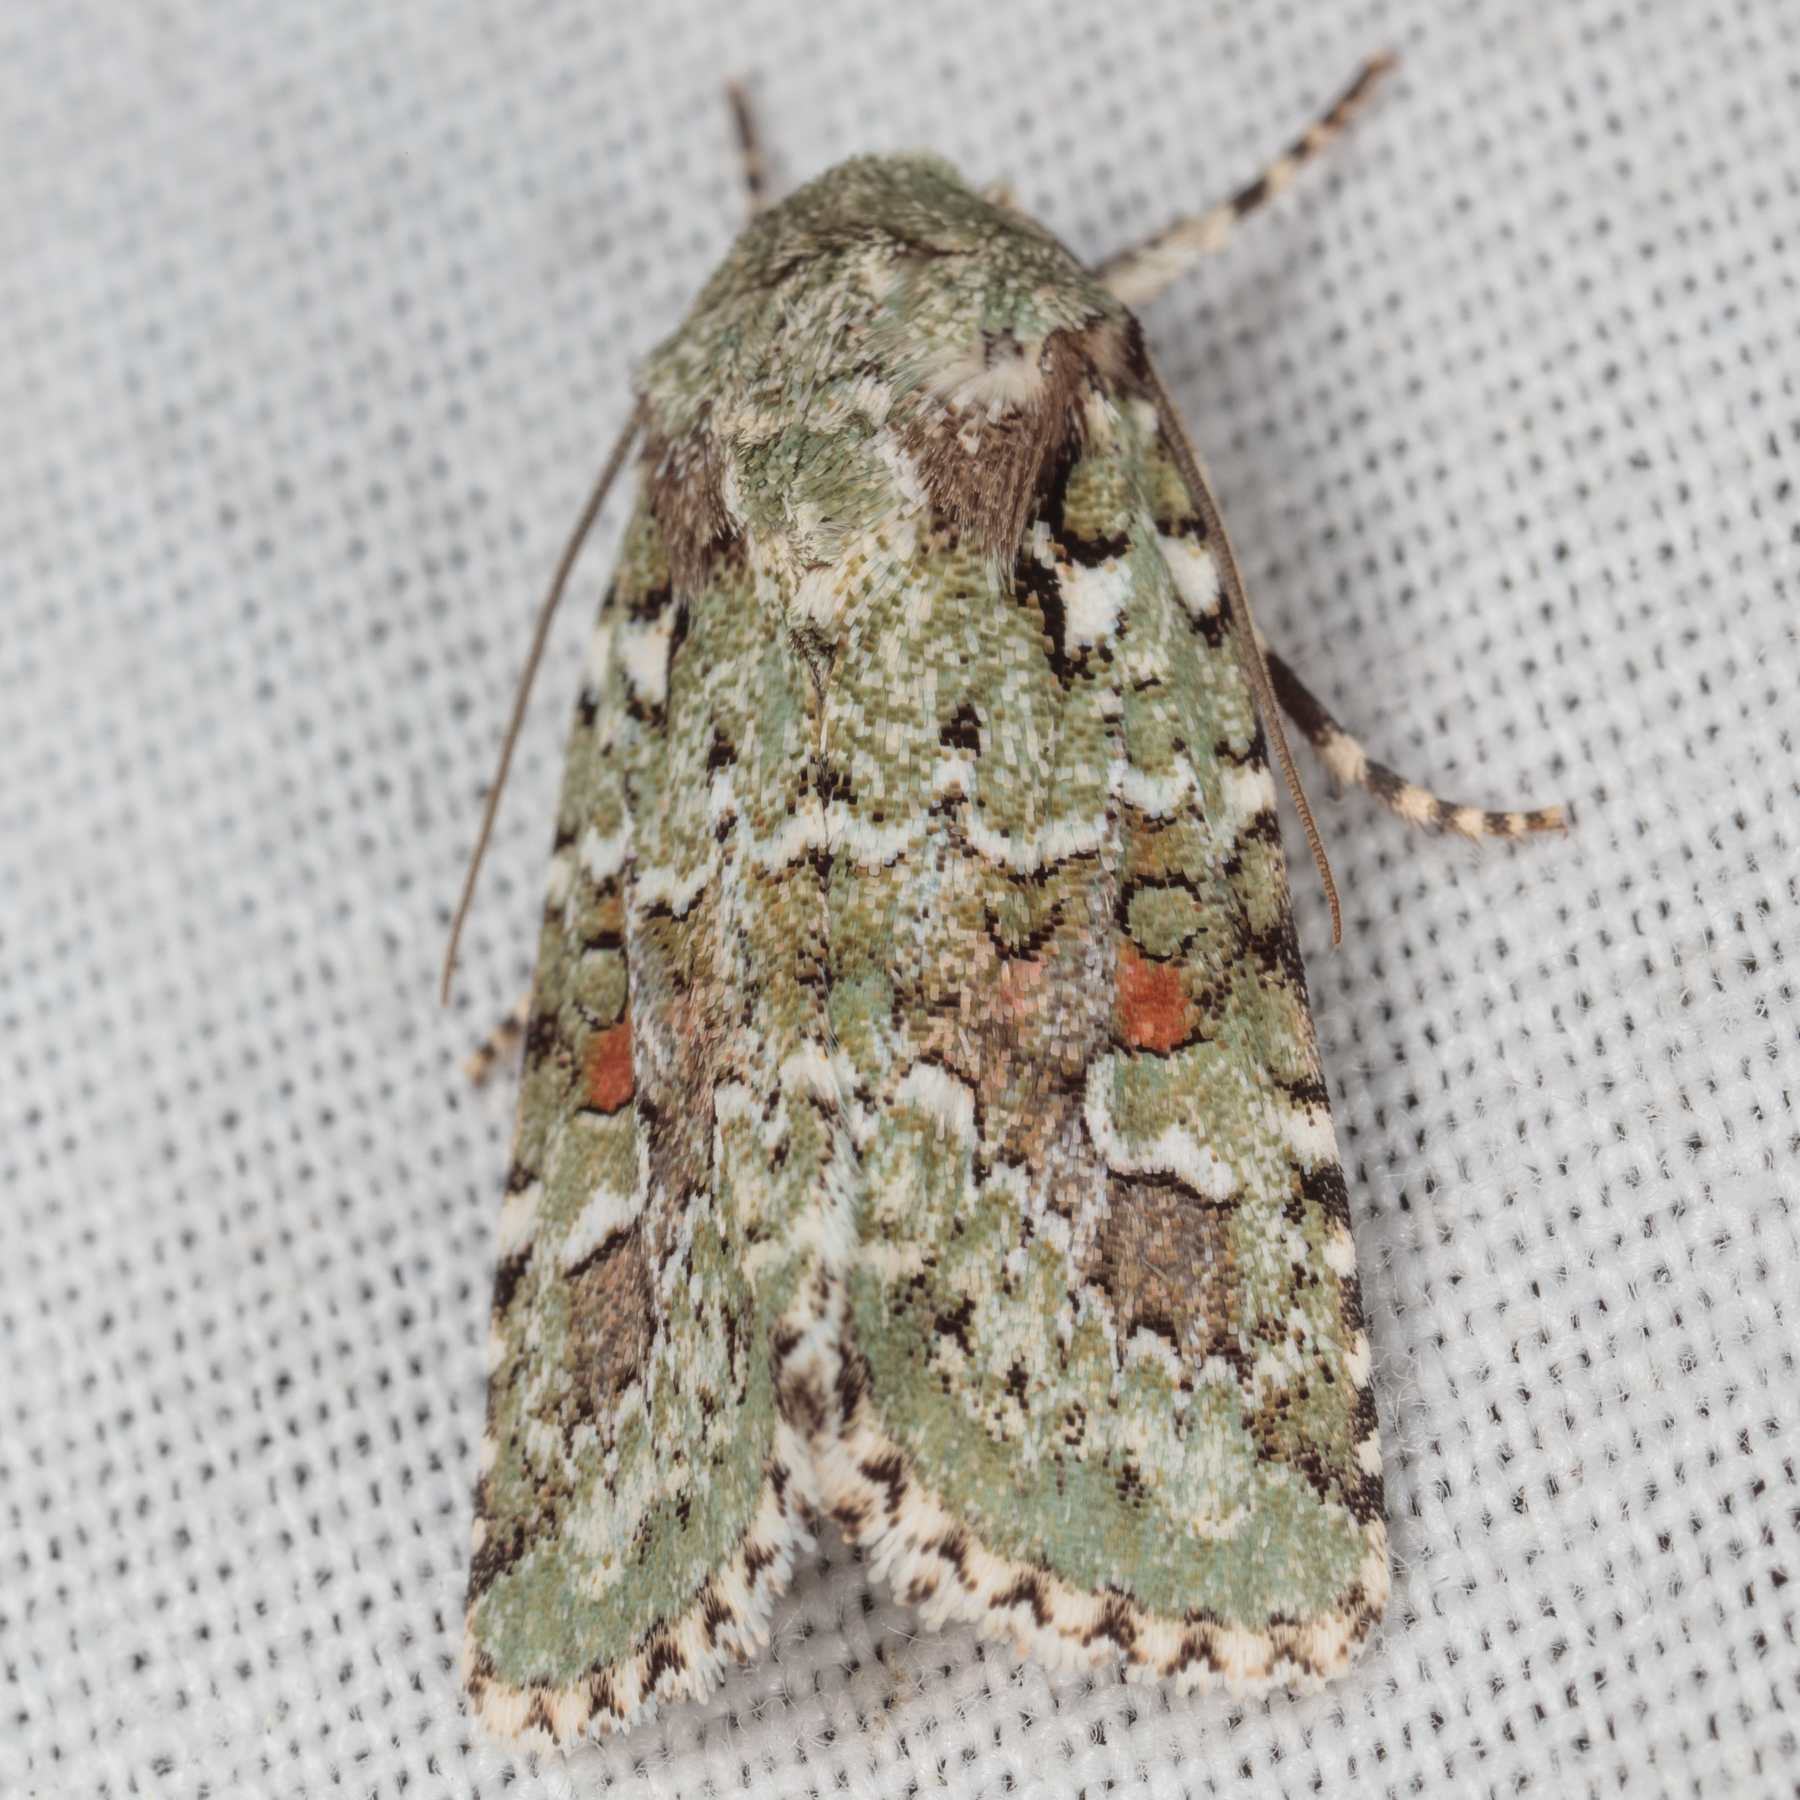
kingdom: Animalia
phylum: Arthropoda
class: Insecta
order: Lepidoptera
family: Noctuidae
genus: Lacinipolia
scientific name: Lacinipolia laudabilis
